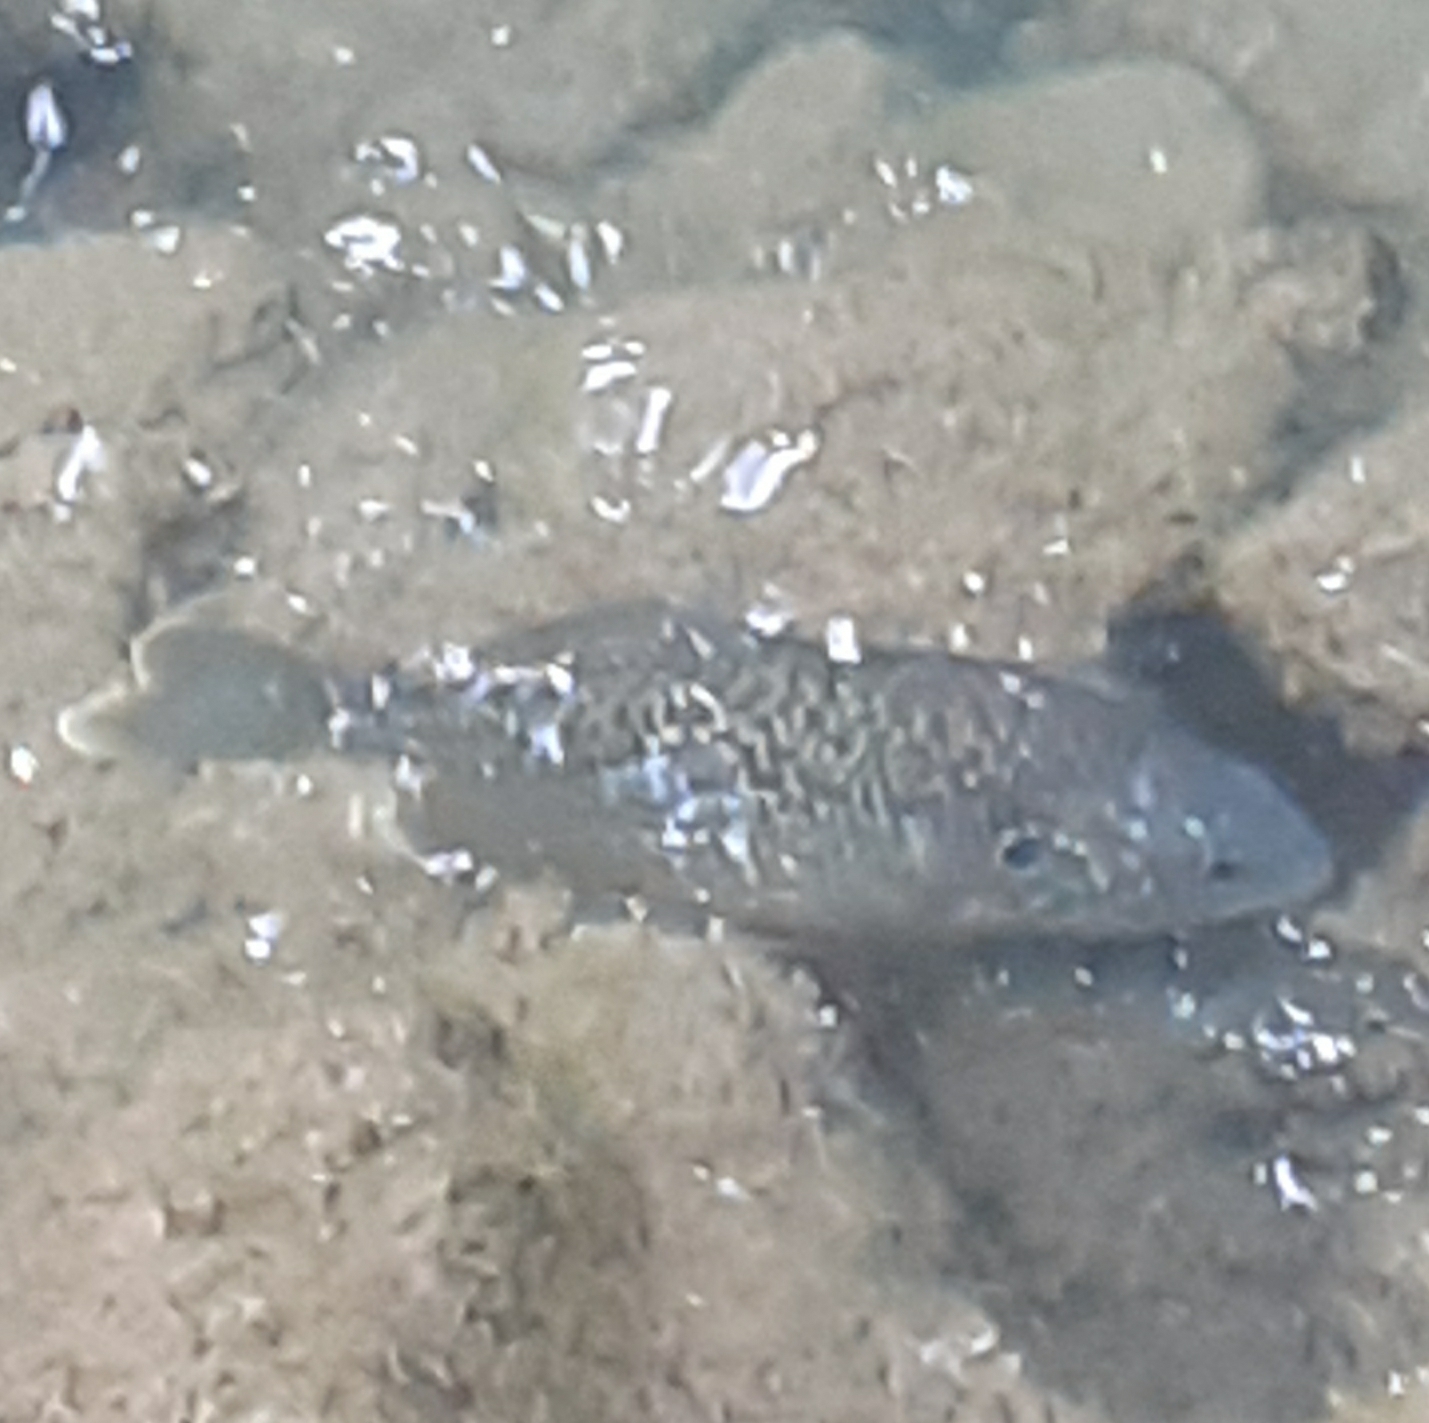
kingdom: Animalia
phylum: Chordata
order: Perciformes
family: Centrarchidae
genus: Lepomis
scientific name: Lepomis gibbosus
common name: Pumpkinseed
